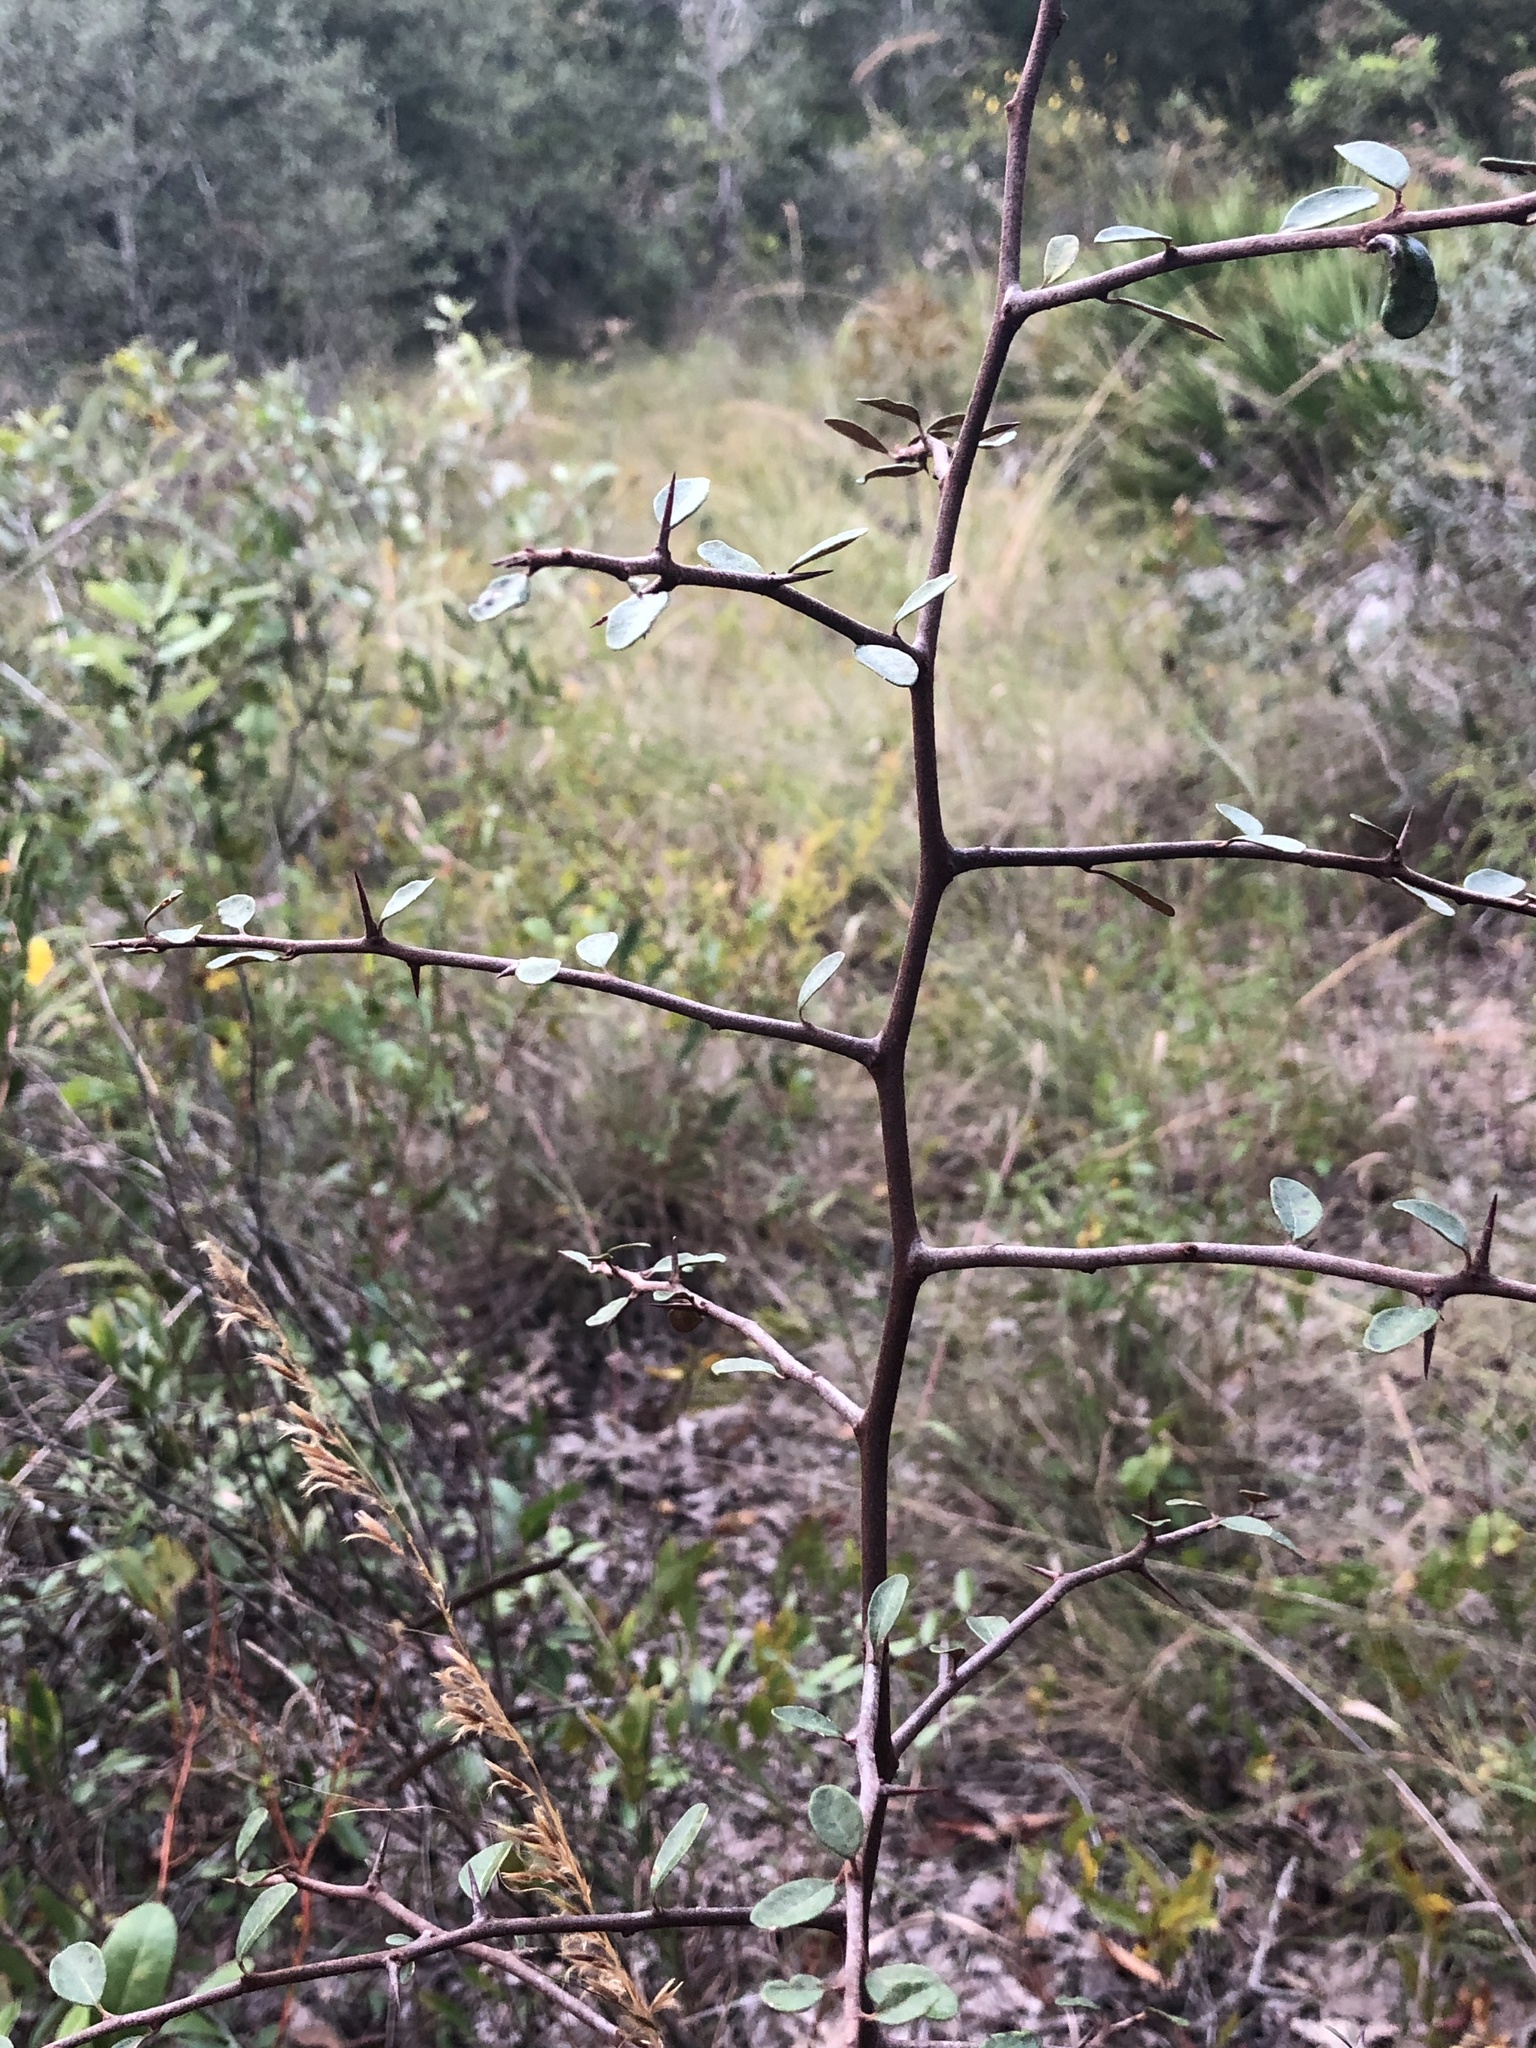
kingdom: Plantae
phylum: Tracheophyta
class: Magnoliopsida
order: Ericales
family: Sapotaceae
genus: Sideroxylon
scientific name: Sideroxylon tenax
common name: Tough-buckthorn
